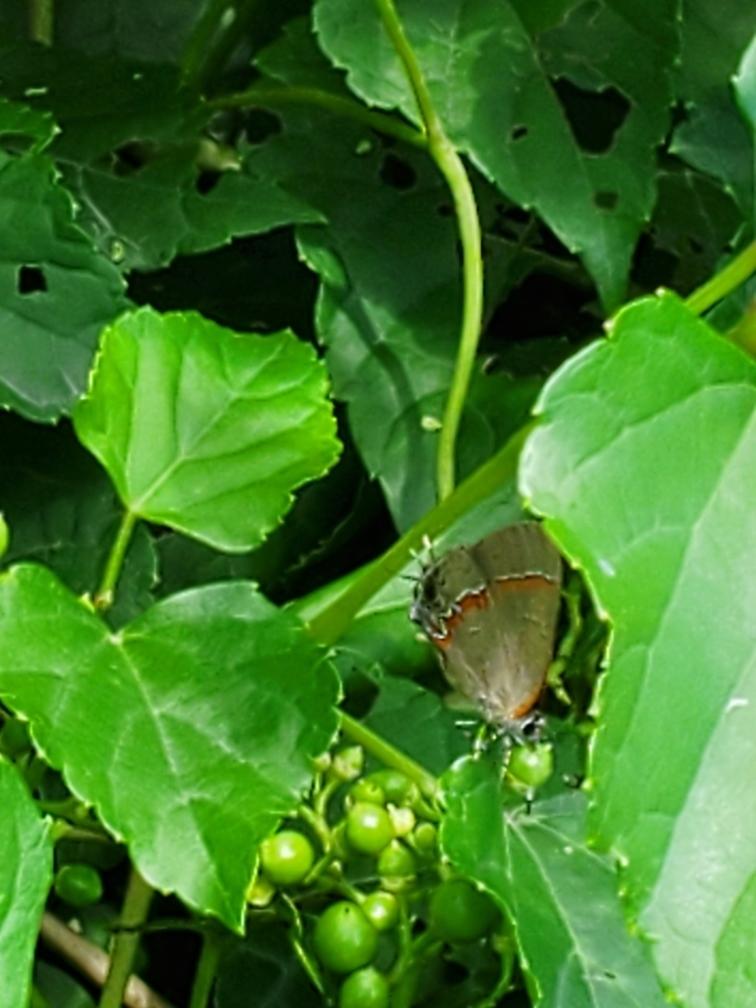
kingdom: Animalia
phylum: Arthropoda
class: Insecta
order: Lepidoptera
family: Lycaenidae
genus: Calycopis
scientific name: Calycopis cecrops
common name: Red-banded hairstreak
